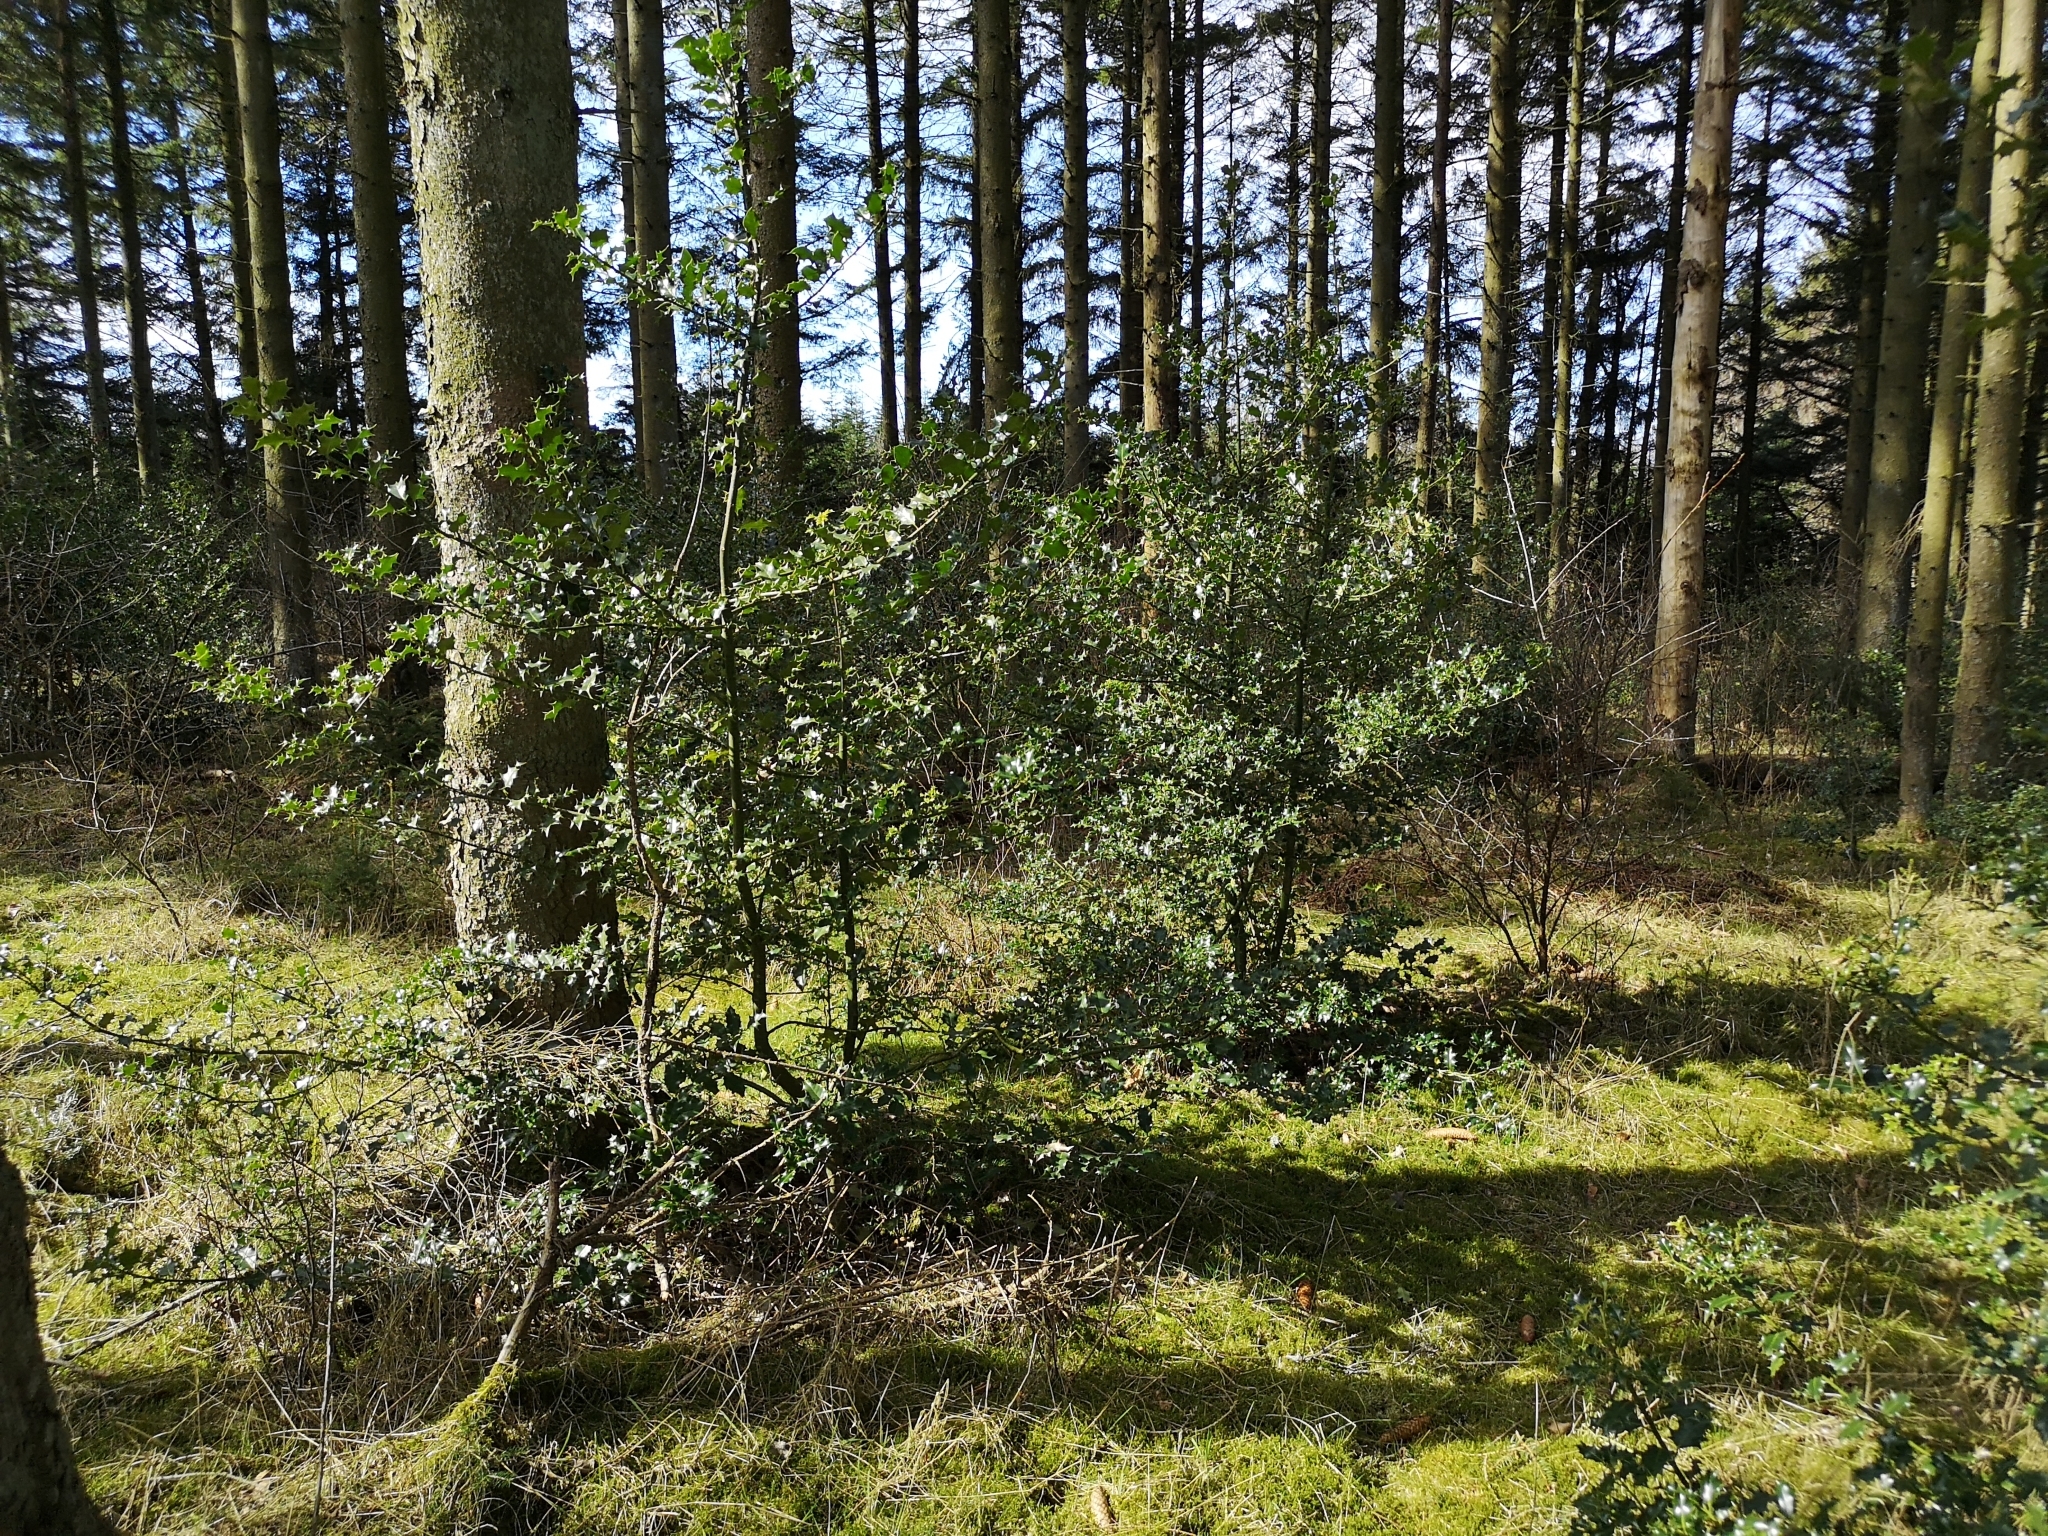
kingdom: Plantae
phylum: Tracheophyta
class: Magnoliopsida
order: Aquifoliales
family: Aquifoliaceae
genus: Ilex
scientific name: Ilex aquifolium
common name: English holly
